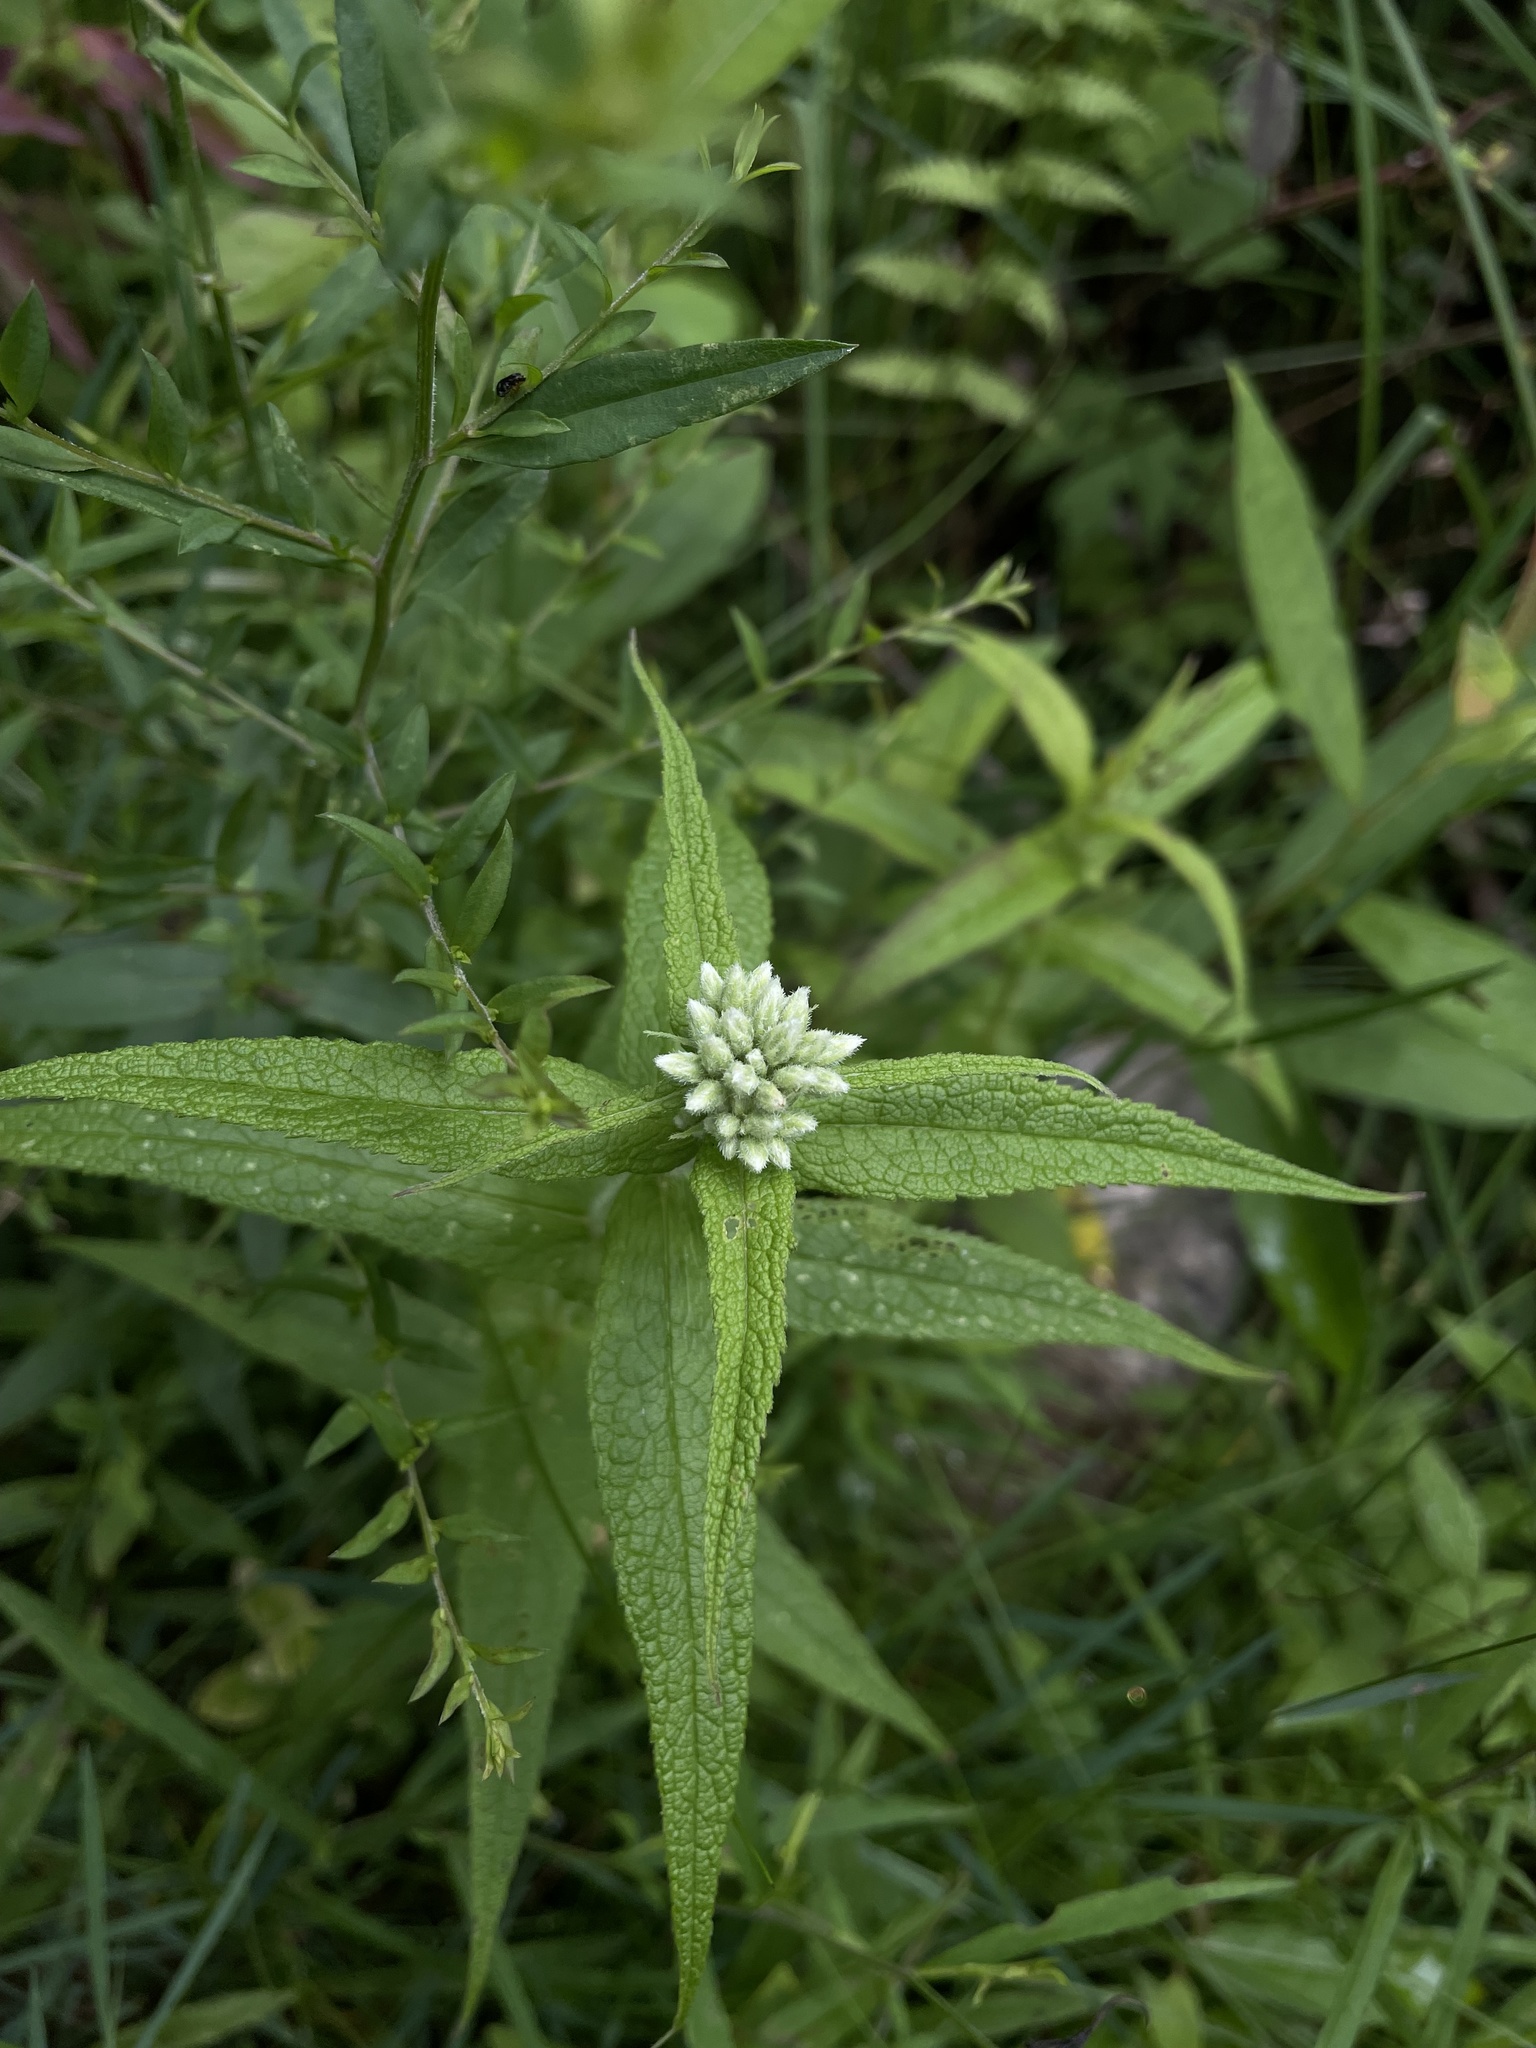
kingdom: Plantae
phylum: Tracheophyta
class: Magnoliopsida
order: Asterales
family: Asteraceae
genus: Eupatorium
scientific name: Eupatorium perfoliatum
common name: Boneset
